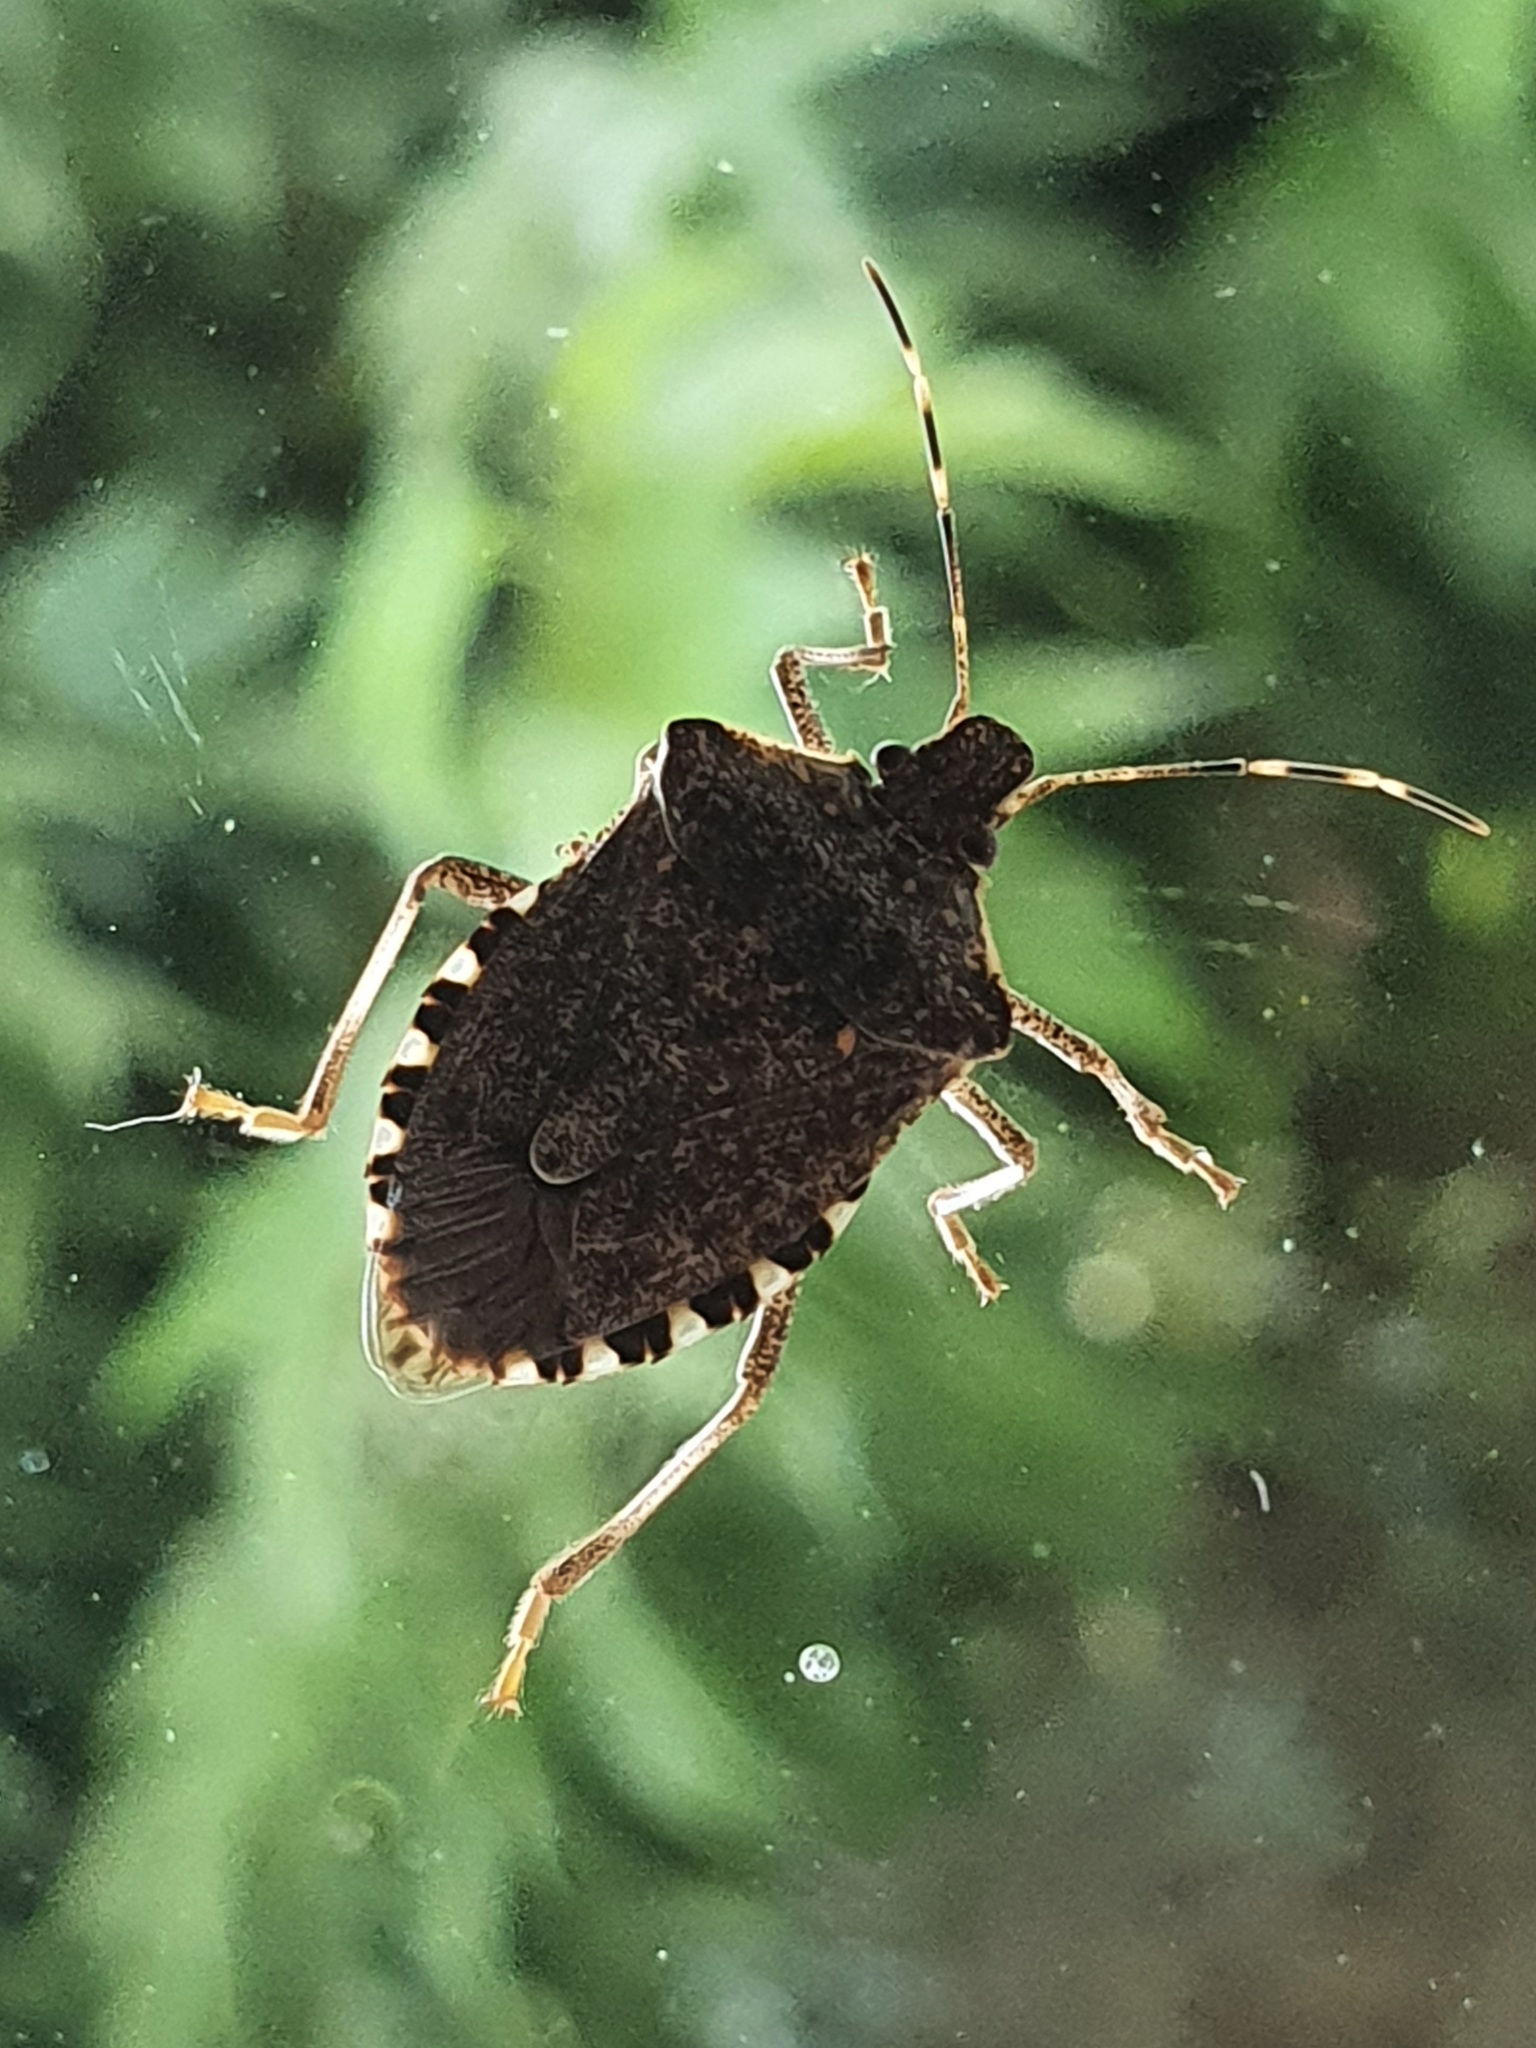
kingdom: Animalia
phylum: Arthropoda
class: Insecta
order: Hemiptera
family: Pentatomidae
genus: Halyomorpha
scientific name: Halyomorpha halys
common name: Brown marmorated stink bug
